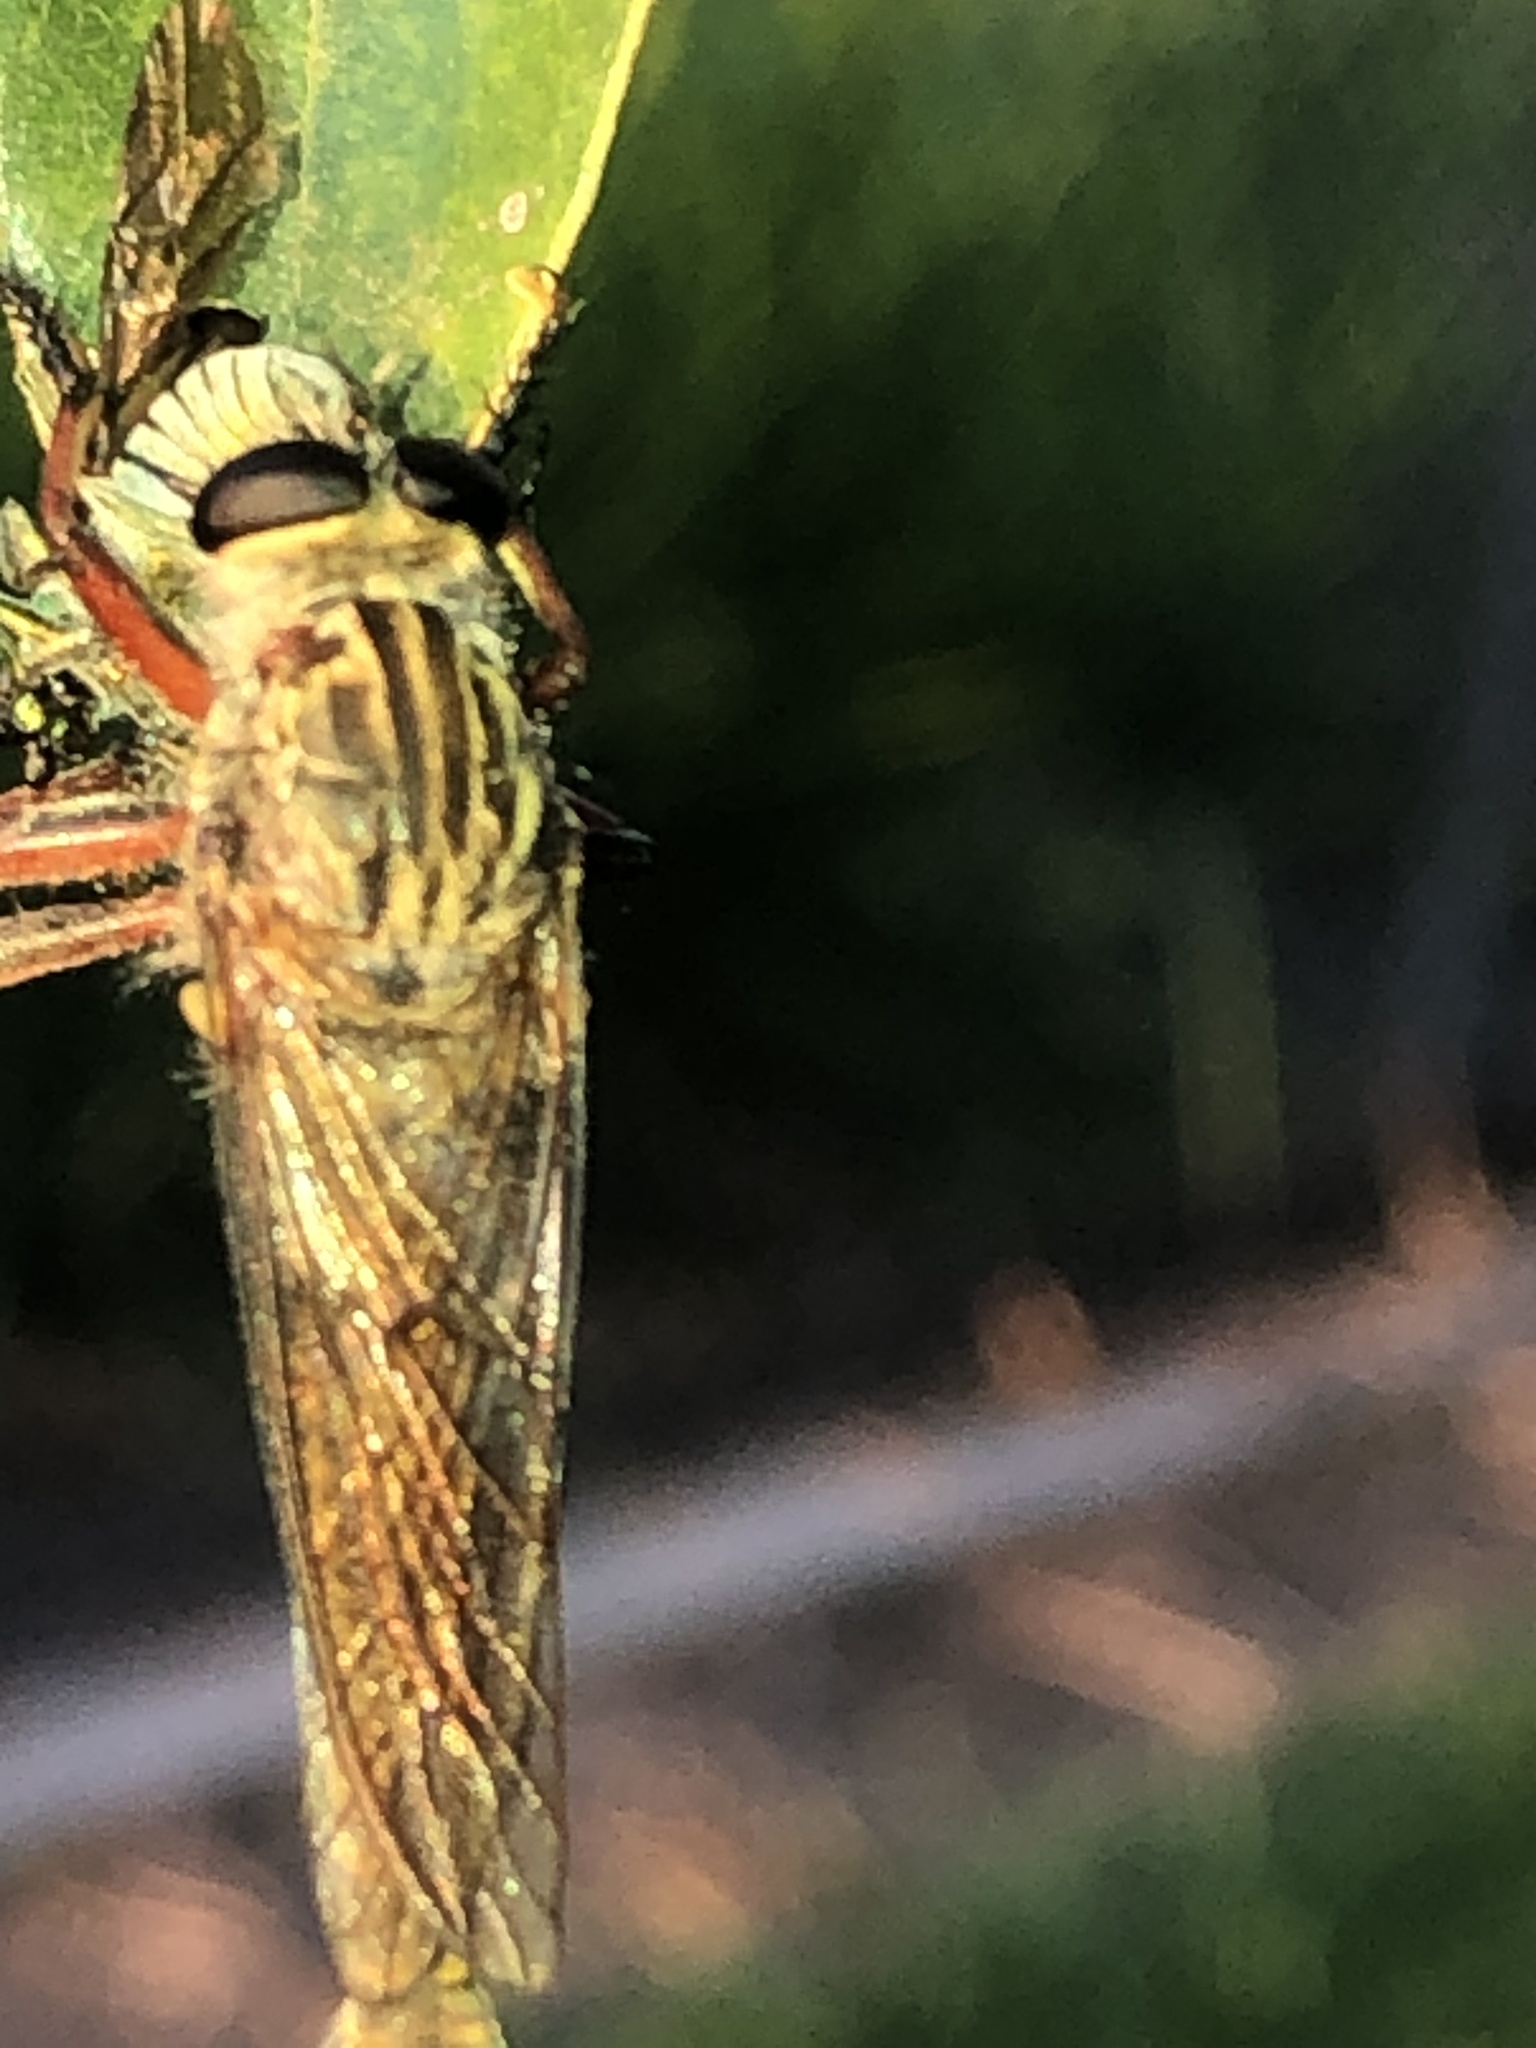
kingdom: Animalia
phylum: Arthropoda
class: Insecta
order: Diptera
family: Asilidae
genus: Dolopus
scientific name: Dolopus simulans
